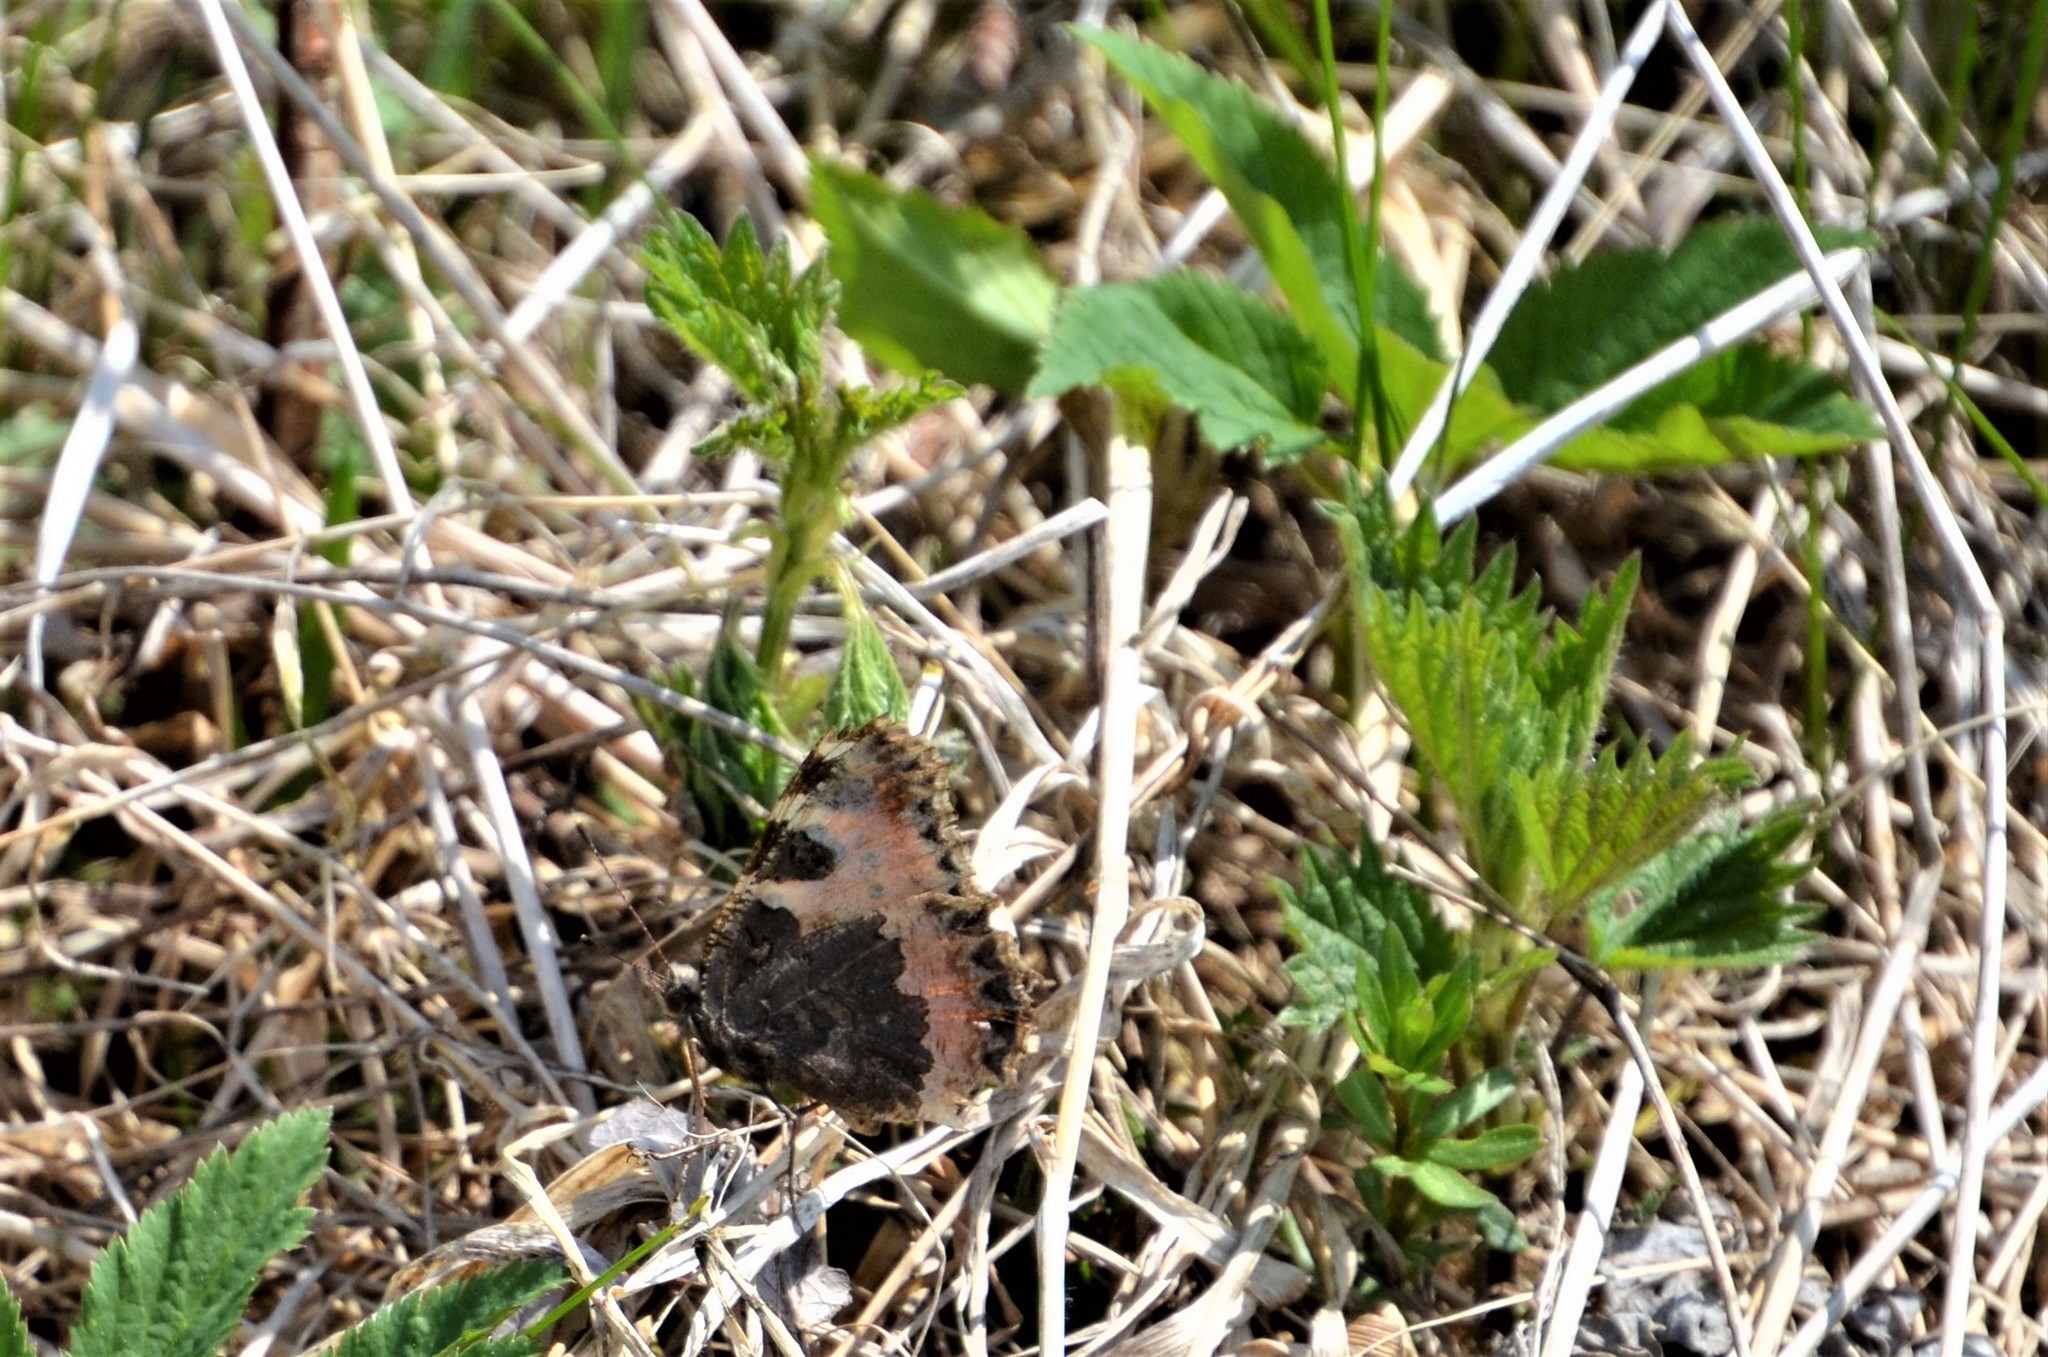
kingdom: Animalia
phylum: Arthropoda
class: Insecta
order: Lepidoptera
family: Nymphalidae
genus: Aglais
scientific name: Aglais urticae
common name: Small tortoiseshell
